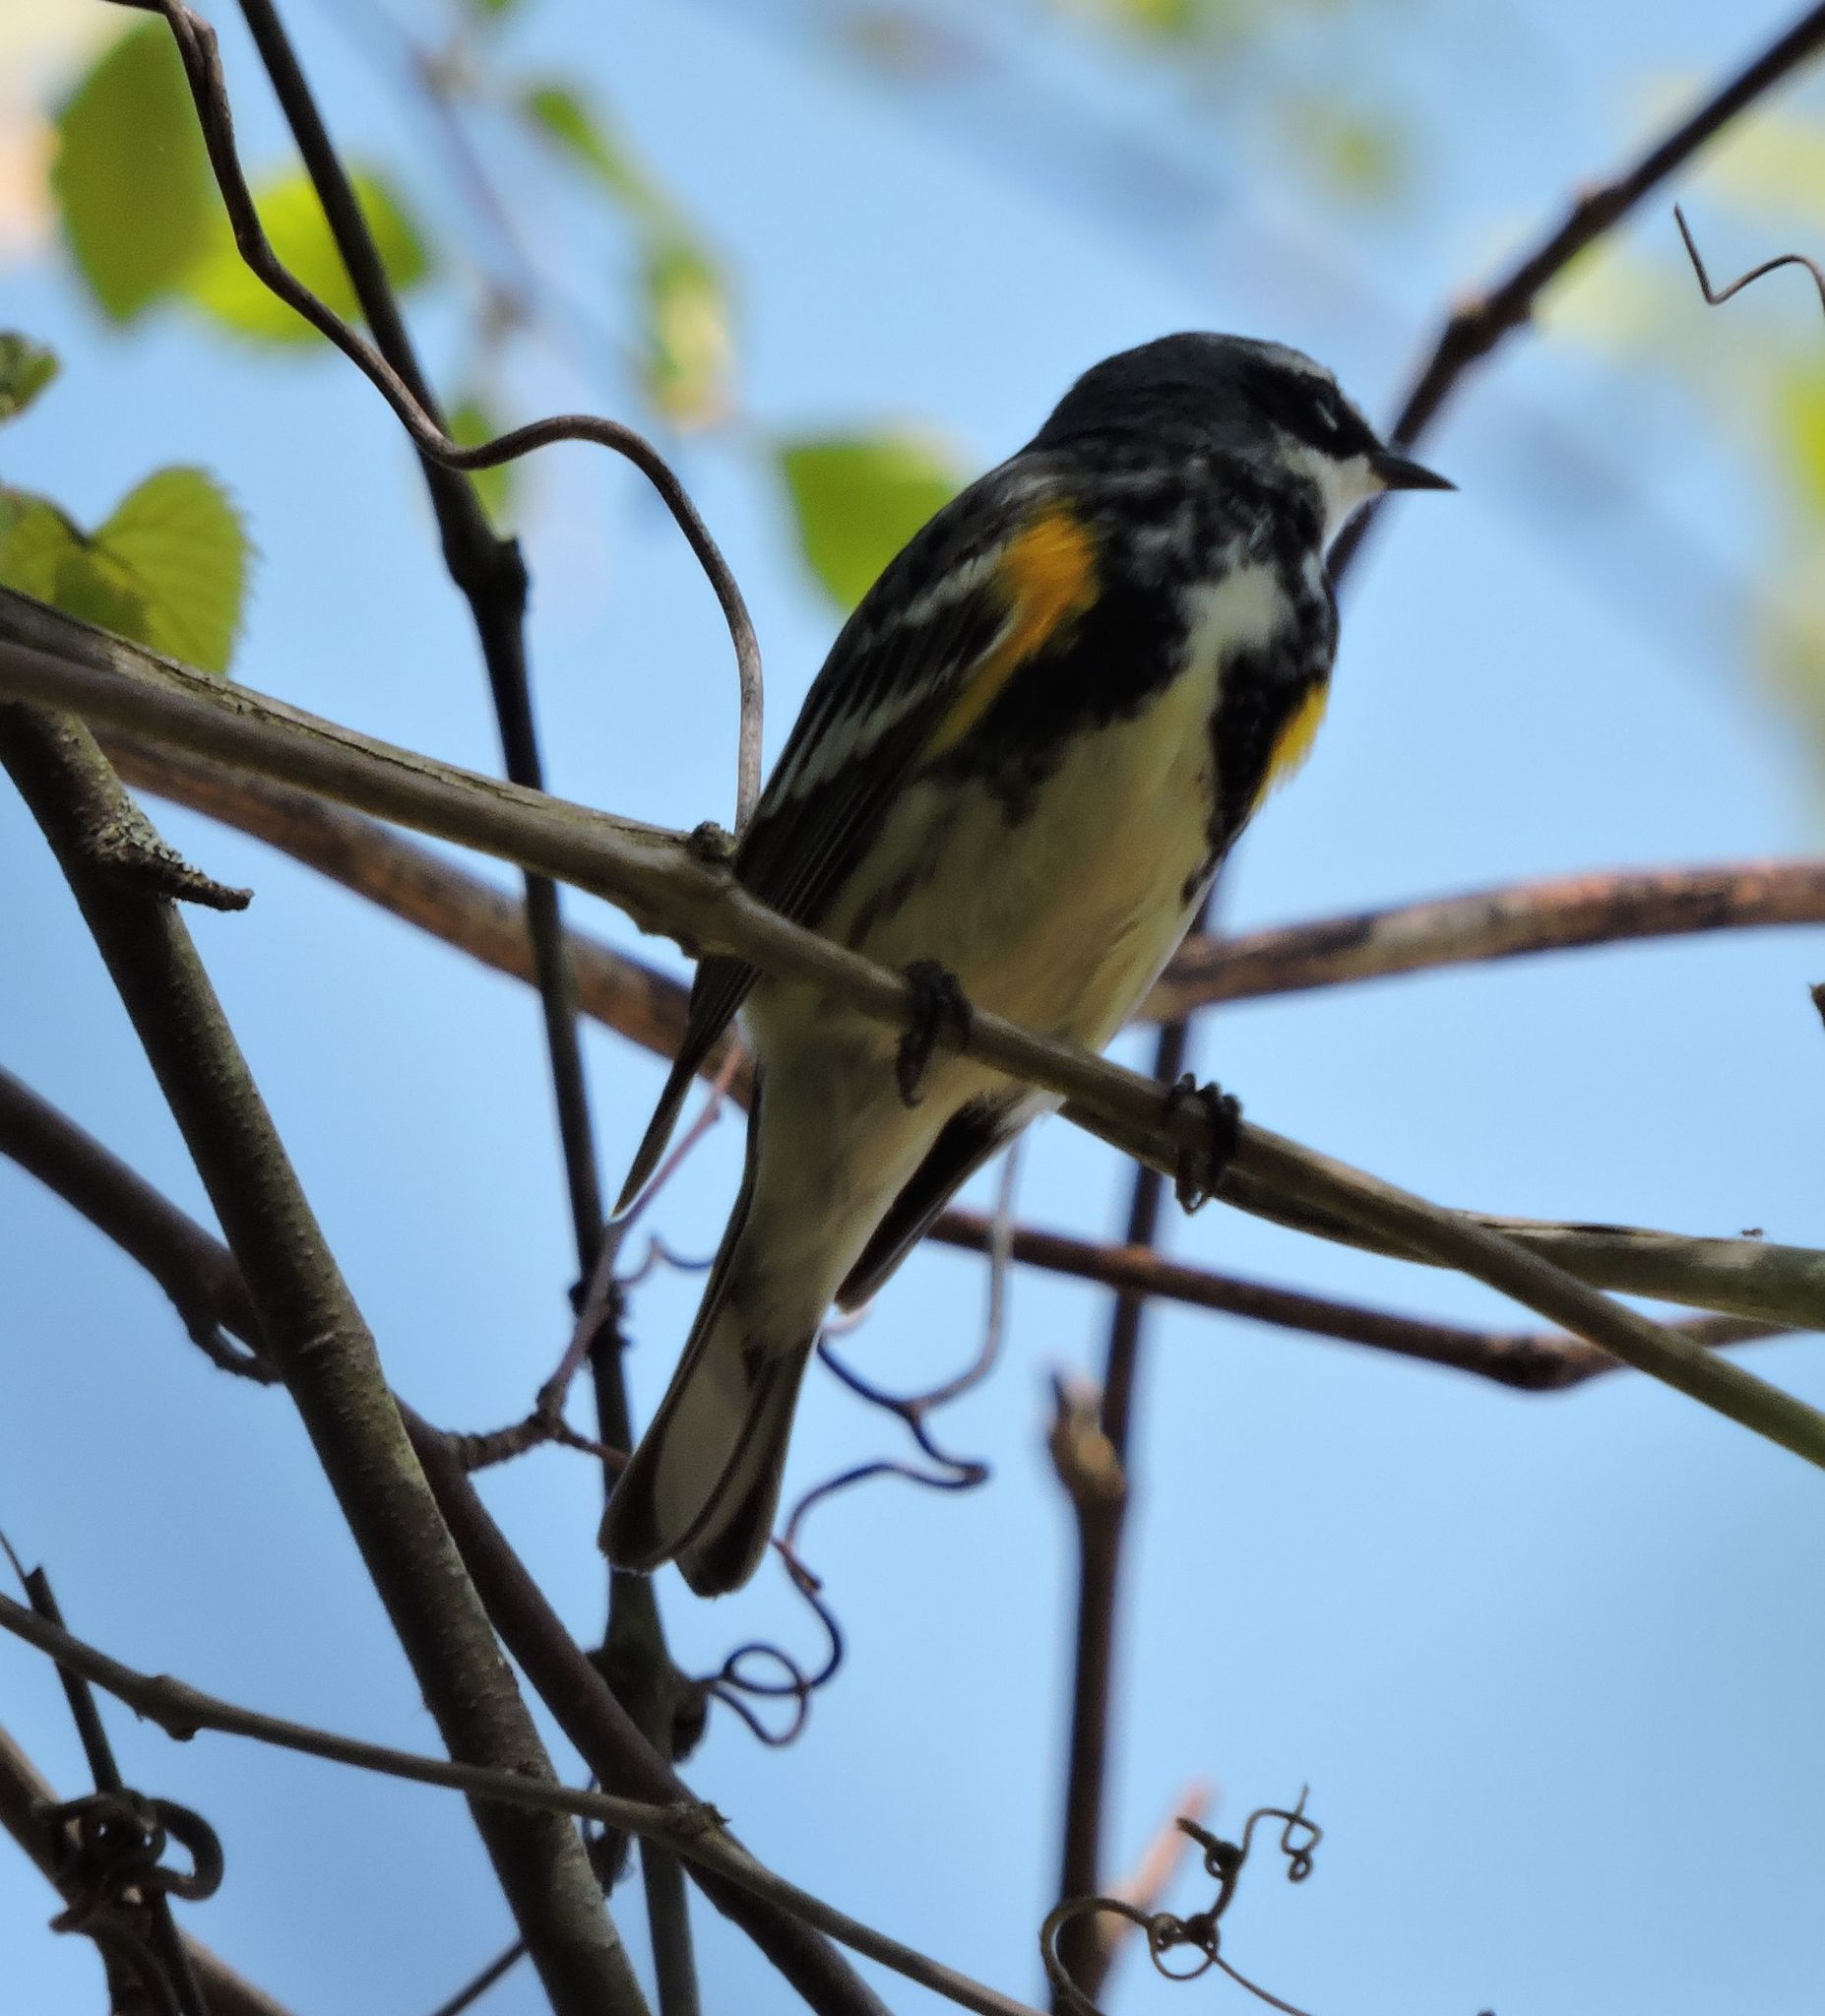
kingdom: Animalia
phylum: Chordata
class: Aves
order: Passeriformes
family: Parulidae
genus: Setophaga
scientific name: Setophaga coronata
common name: Myrtle warbler
